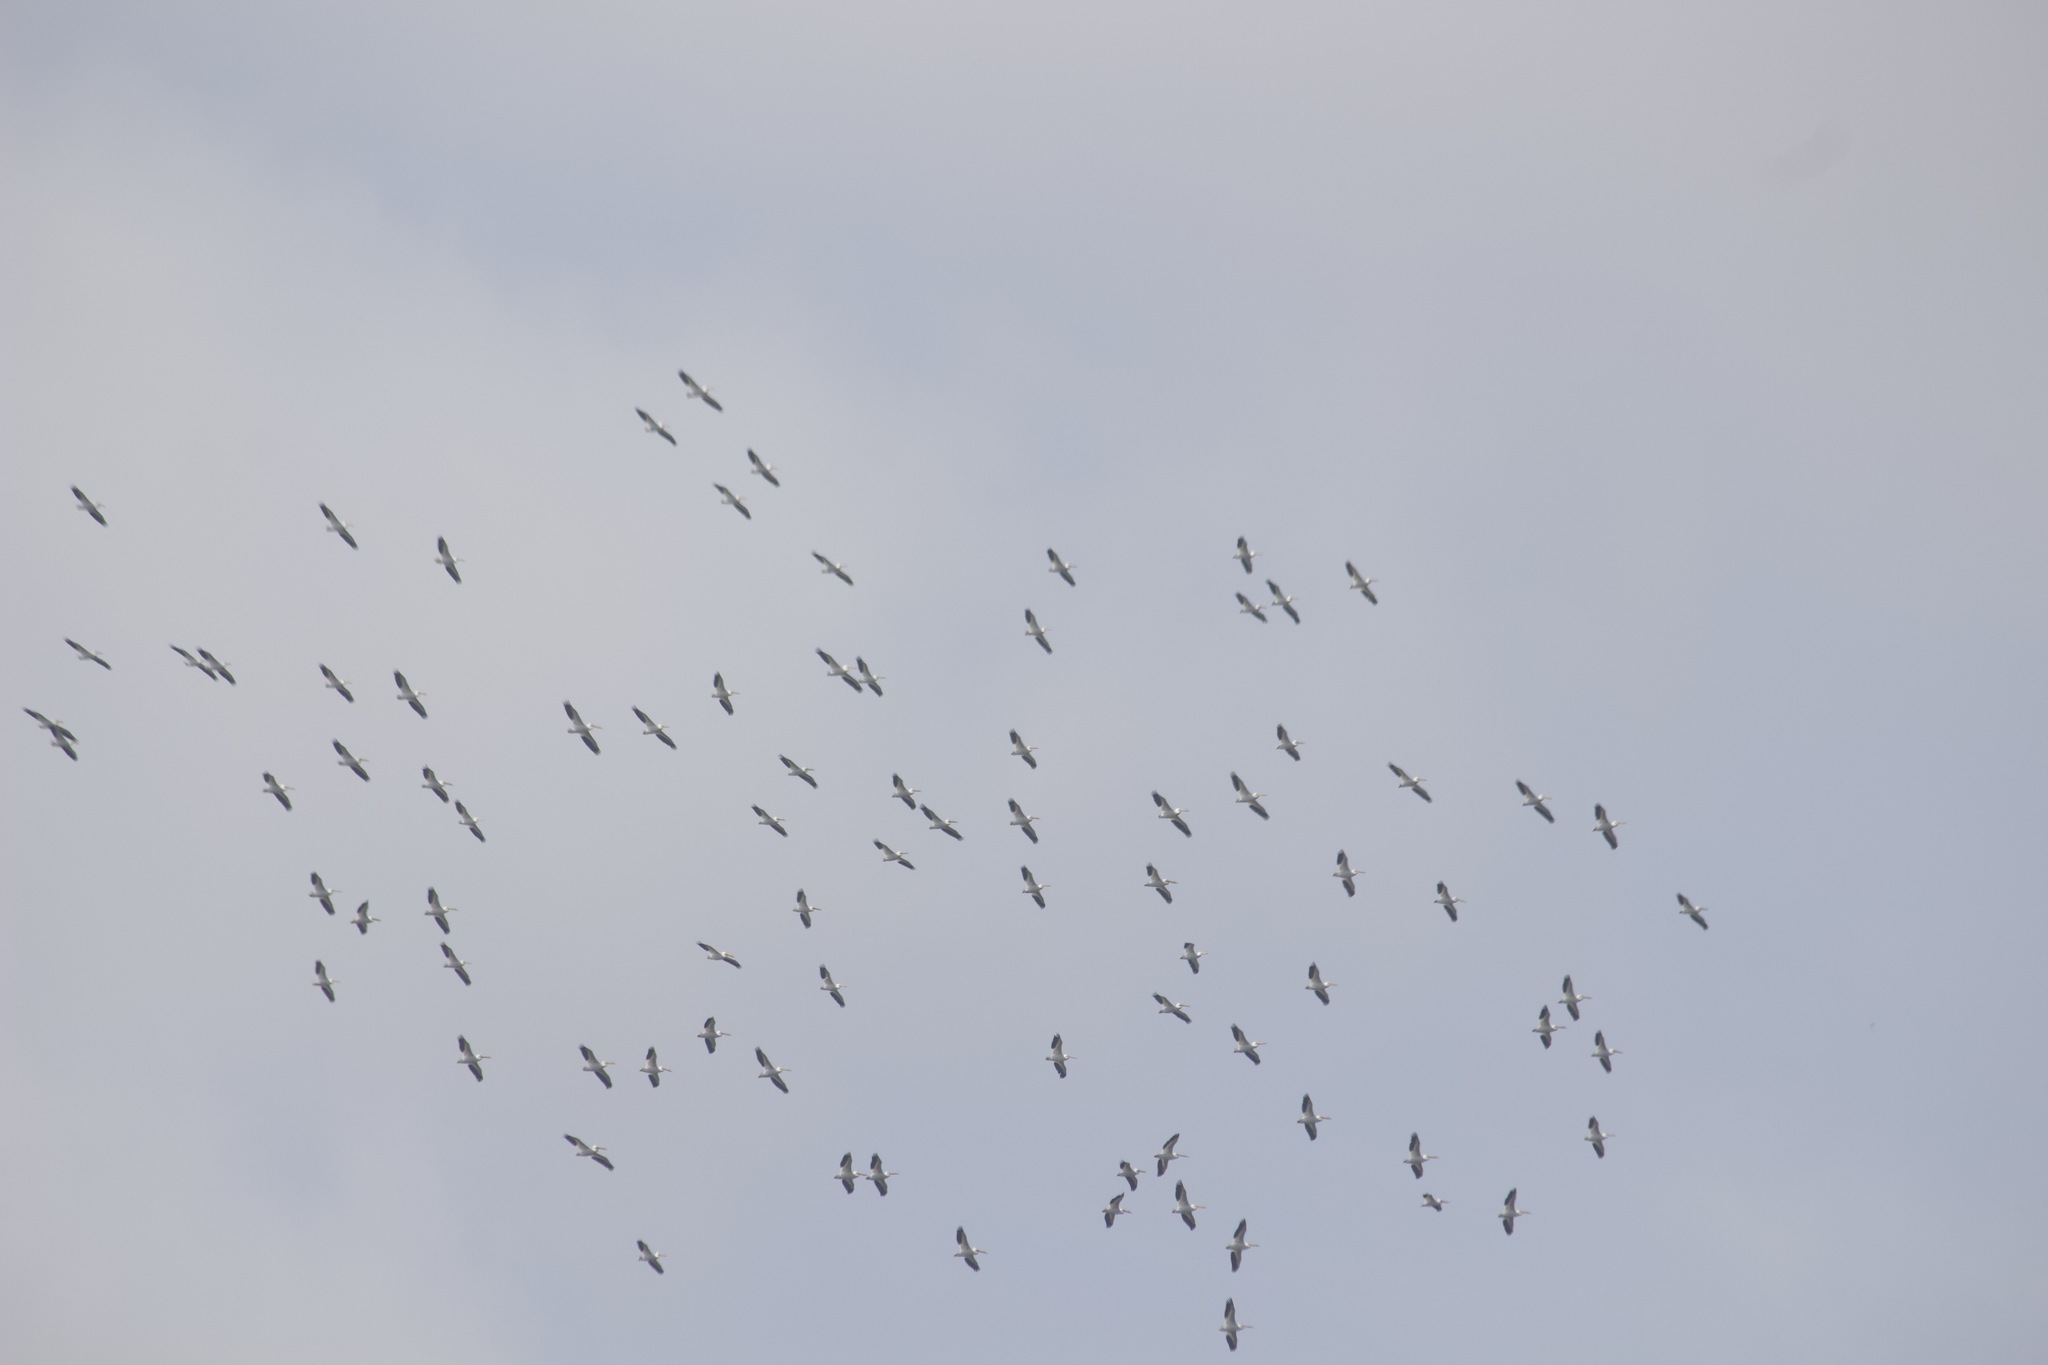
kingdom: Animalia
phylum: Chordata
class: Aves
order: Pelecaniformes
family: Pelecanidae
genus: Pelecanus
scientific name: Pelecanus erythrorhynchos
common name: American white pelican
